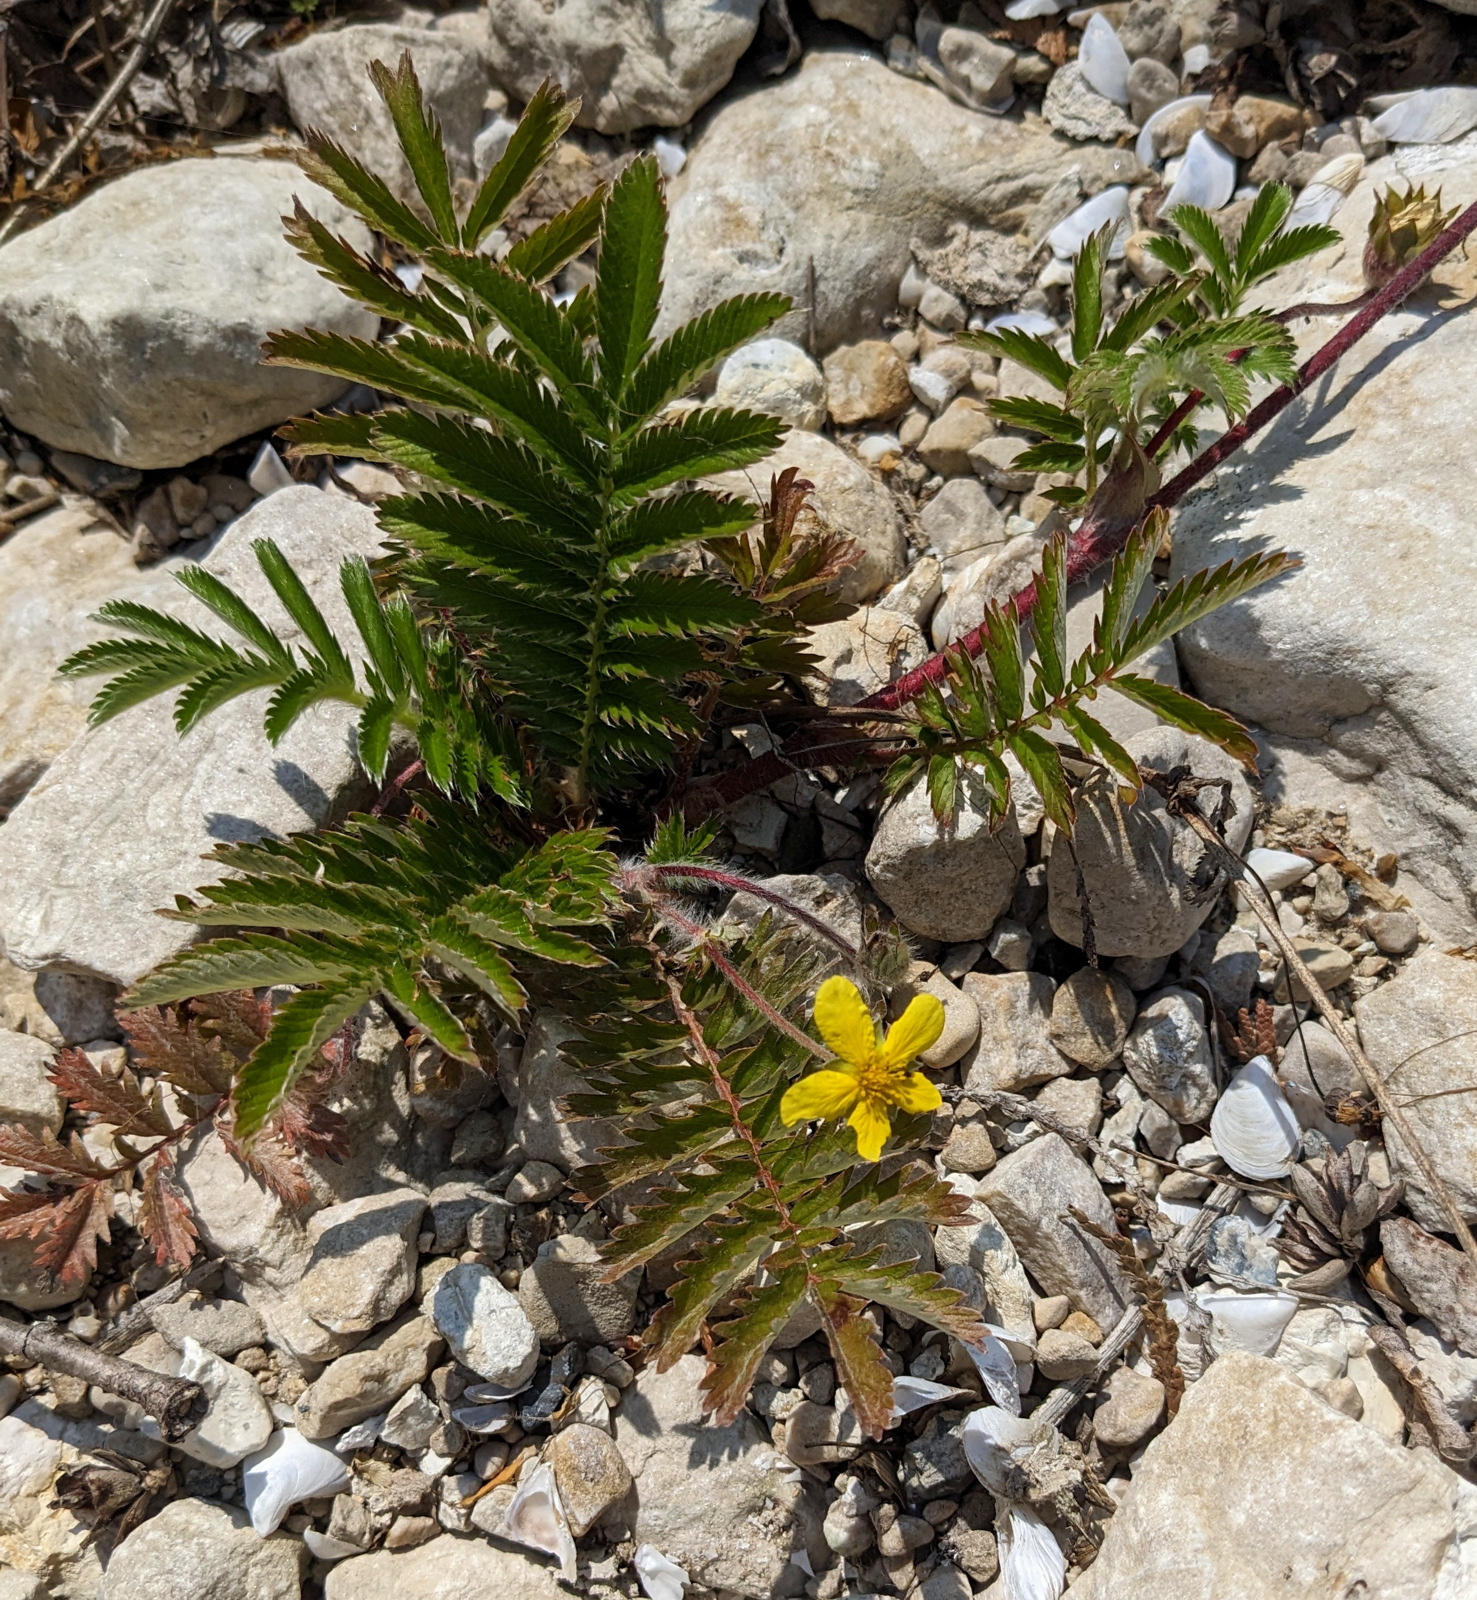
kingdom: Plantae
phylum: Tracheophyta
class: Magnoliopsida
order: Rosales
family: Rosaceae
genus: Argentina
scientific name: Argentina anserina
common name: Common silverweed
